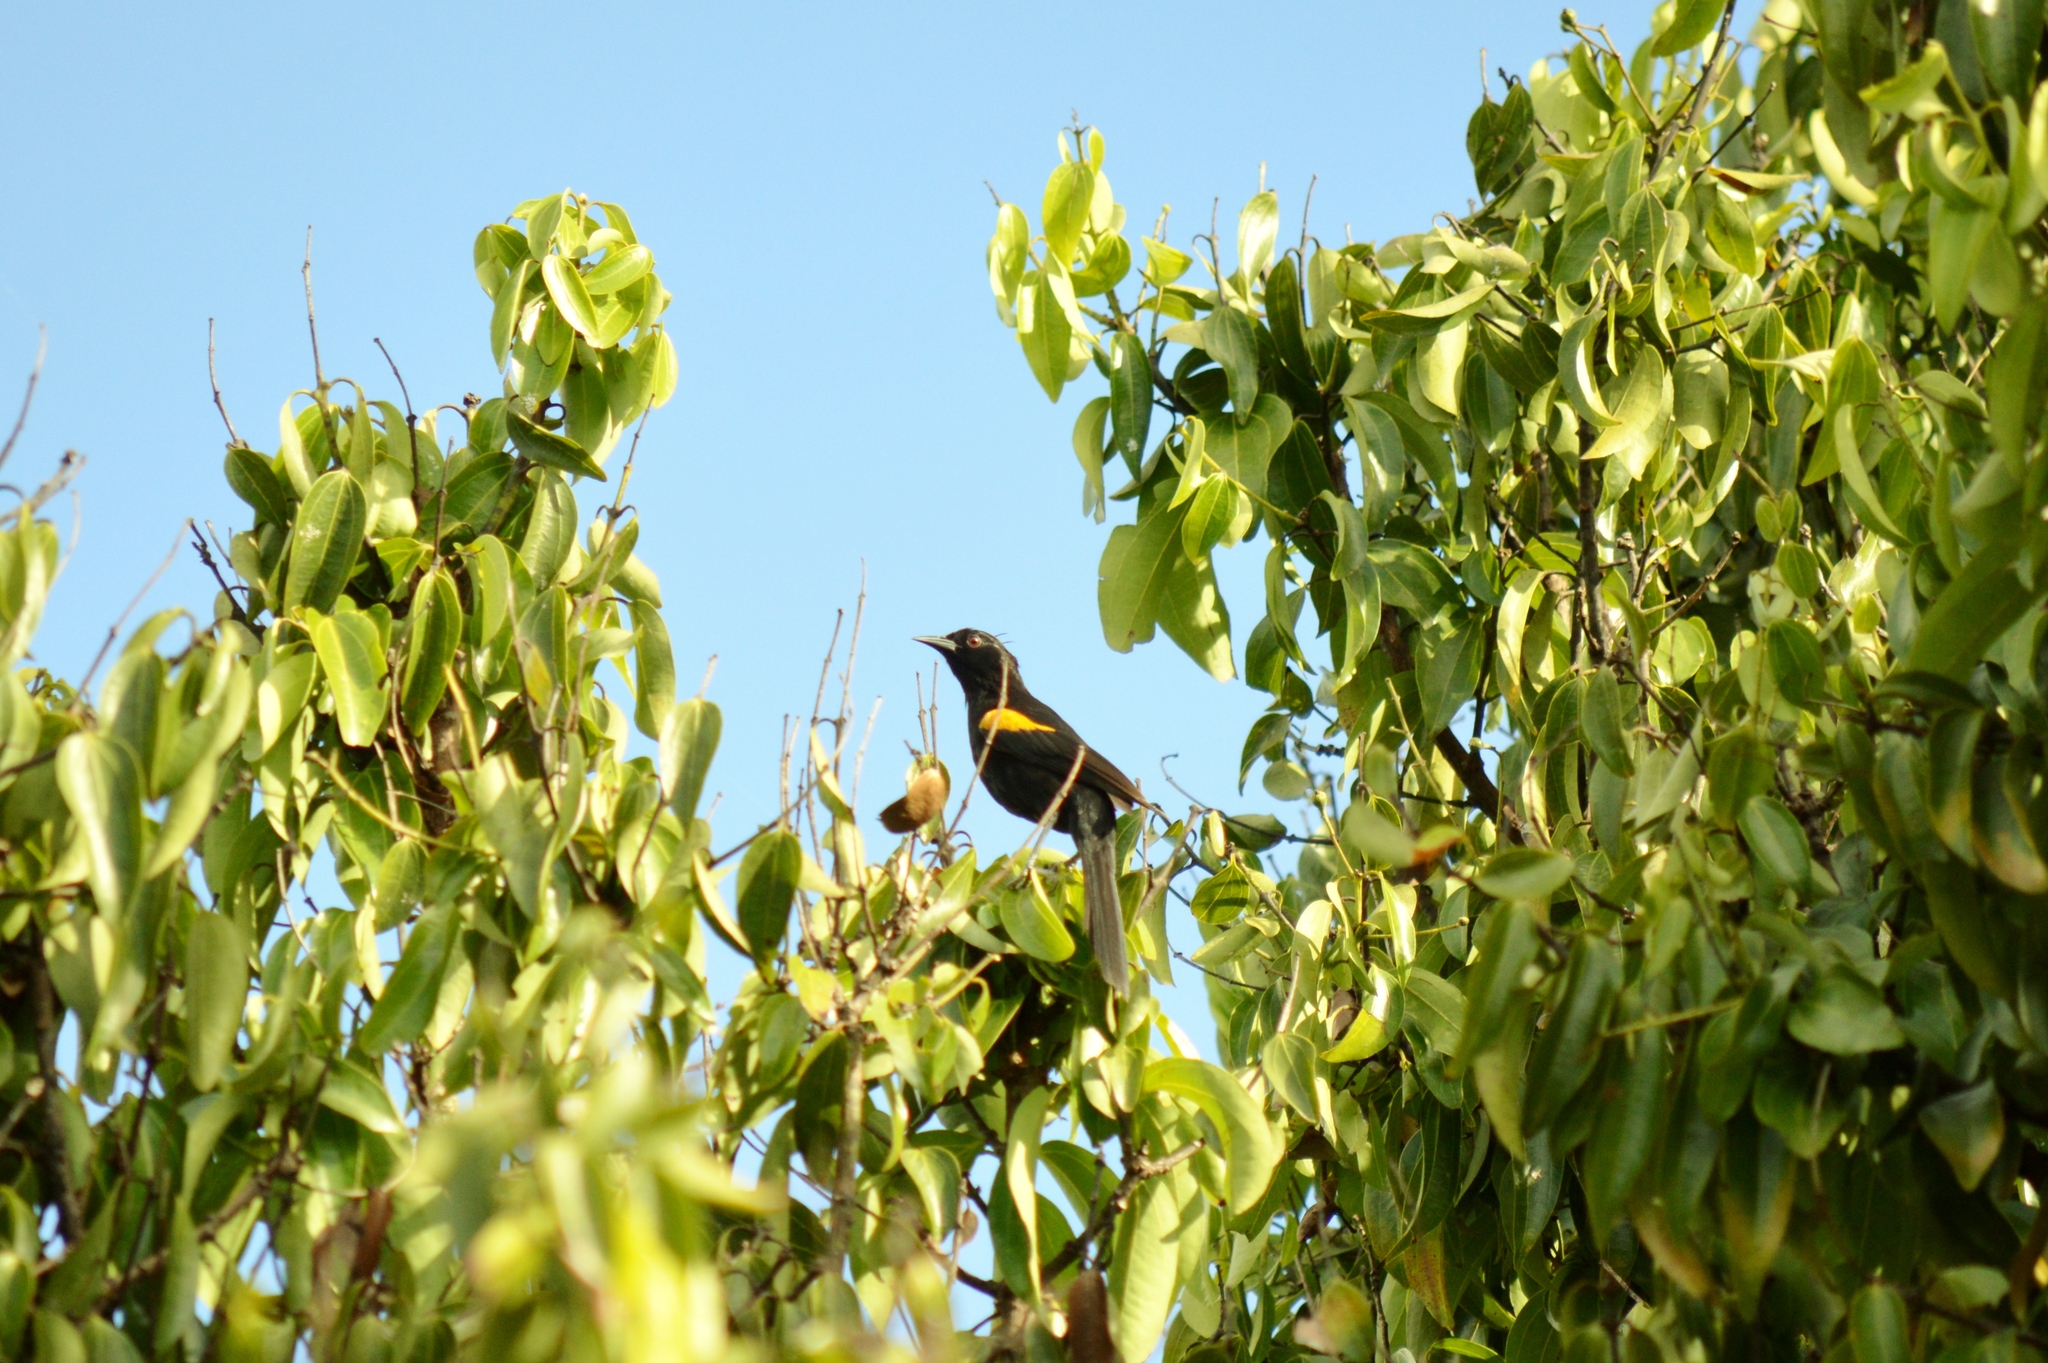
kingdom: Animalia
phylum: Chordata
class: Aves
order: Passeriformes
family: Icteridae
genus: Icterus
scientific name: Icterus cayanensis
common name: Epaulet oriole
